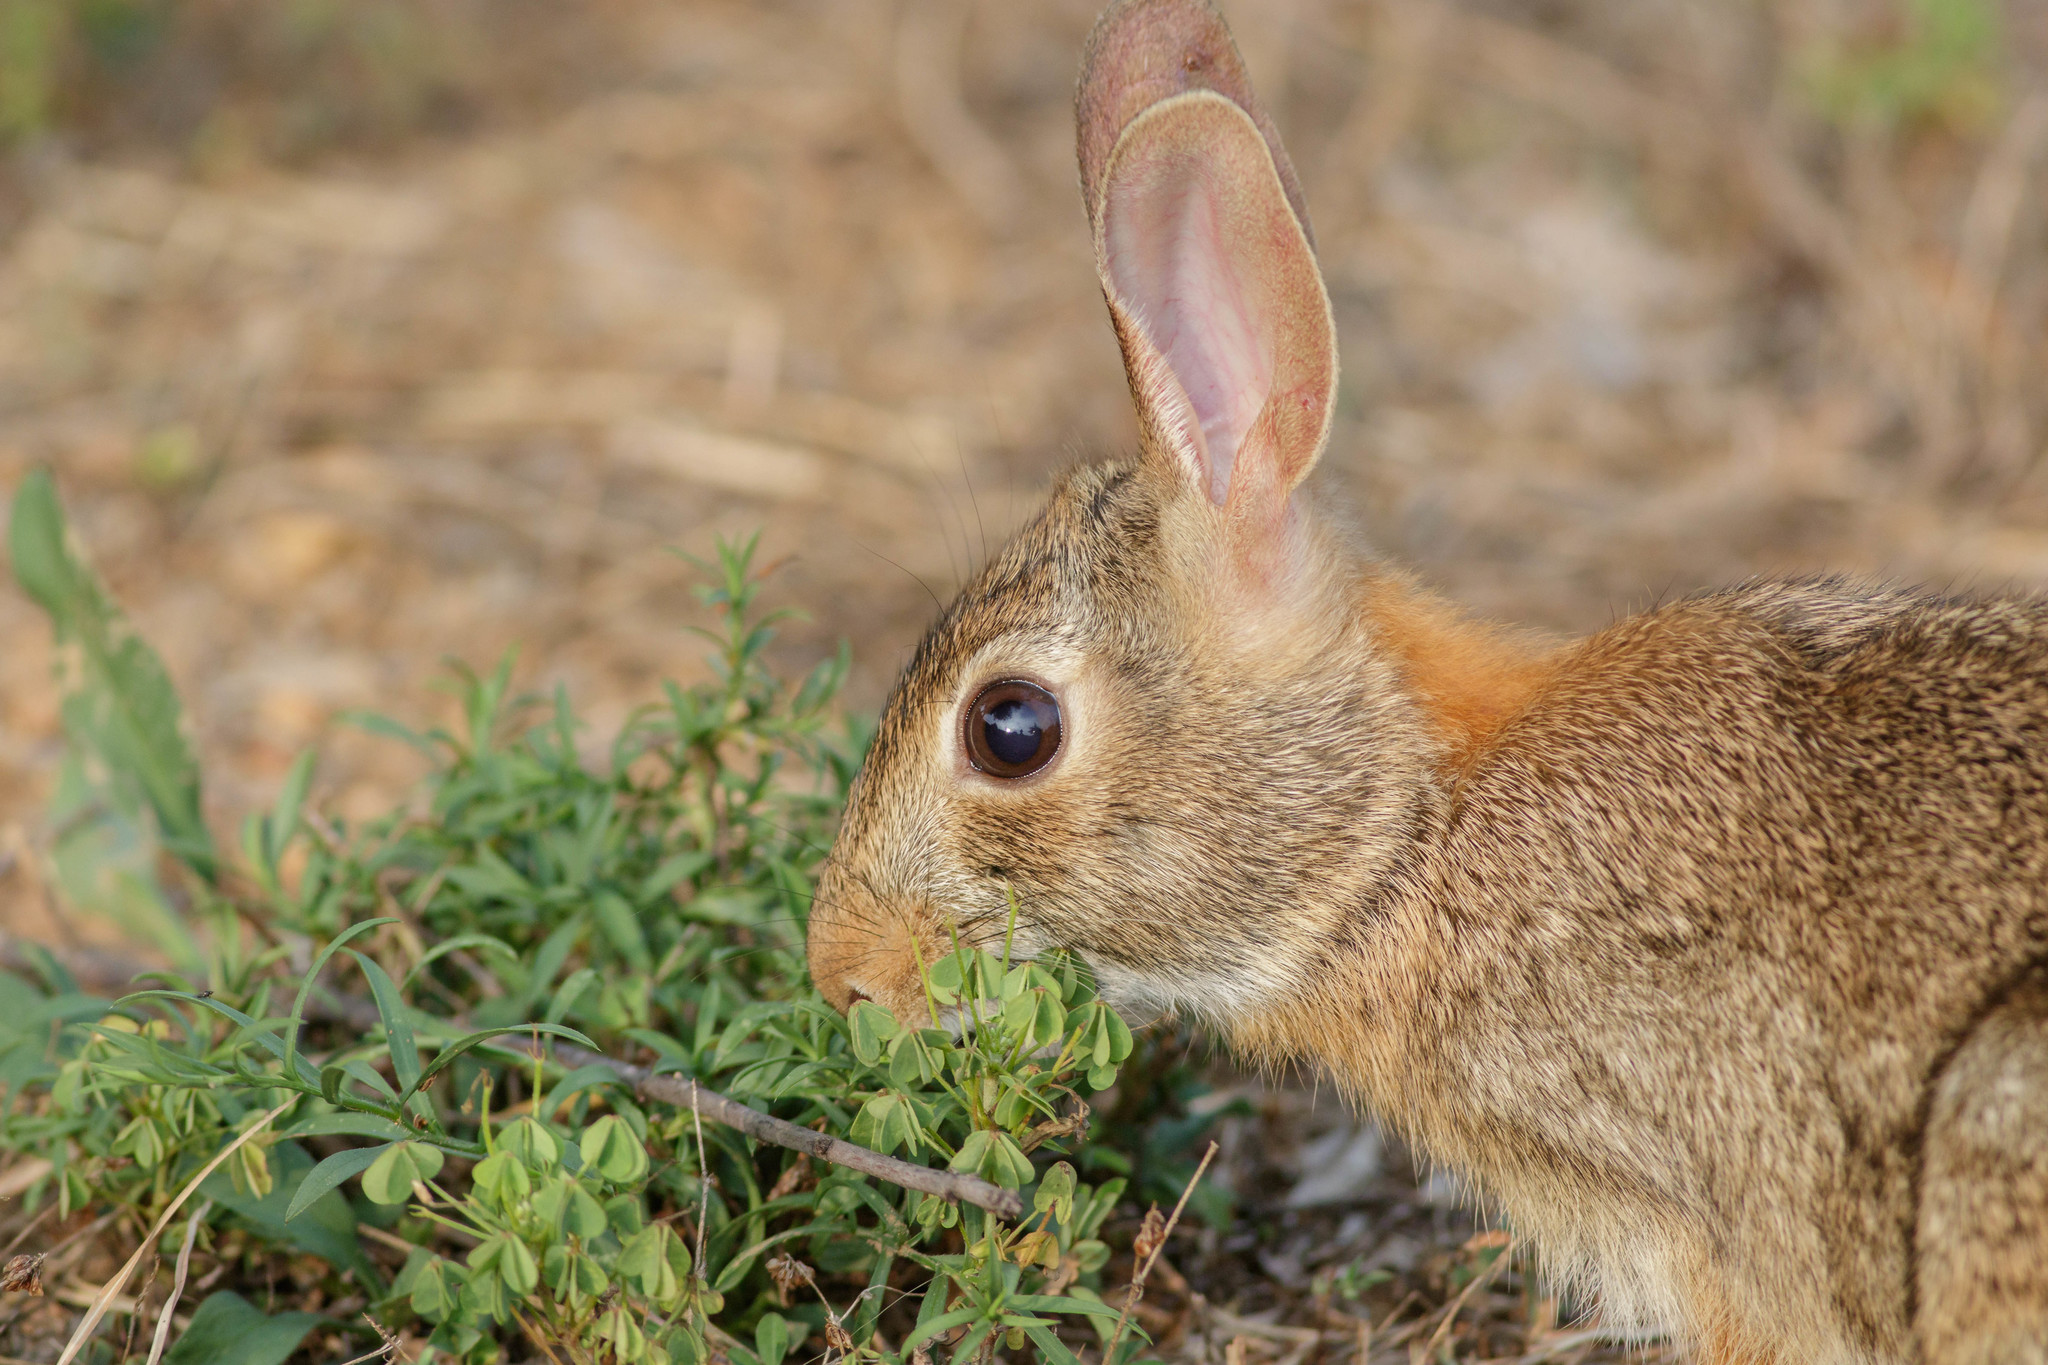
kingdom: Animalia
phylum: Chordata
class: Mammalia
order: Lagomorpha
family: Leporidae
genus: Sylvilagus
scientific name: Sylvilagus floridanus
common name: Eastern cottontail
